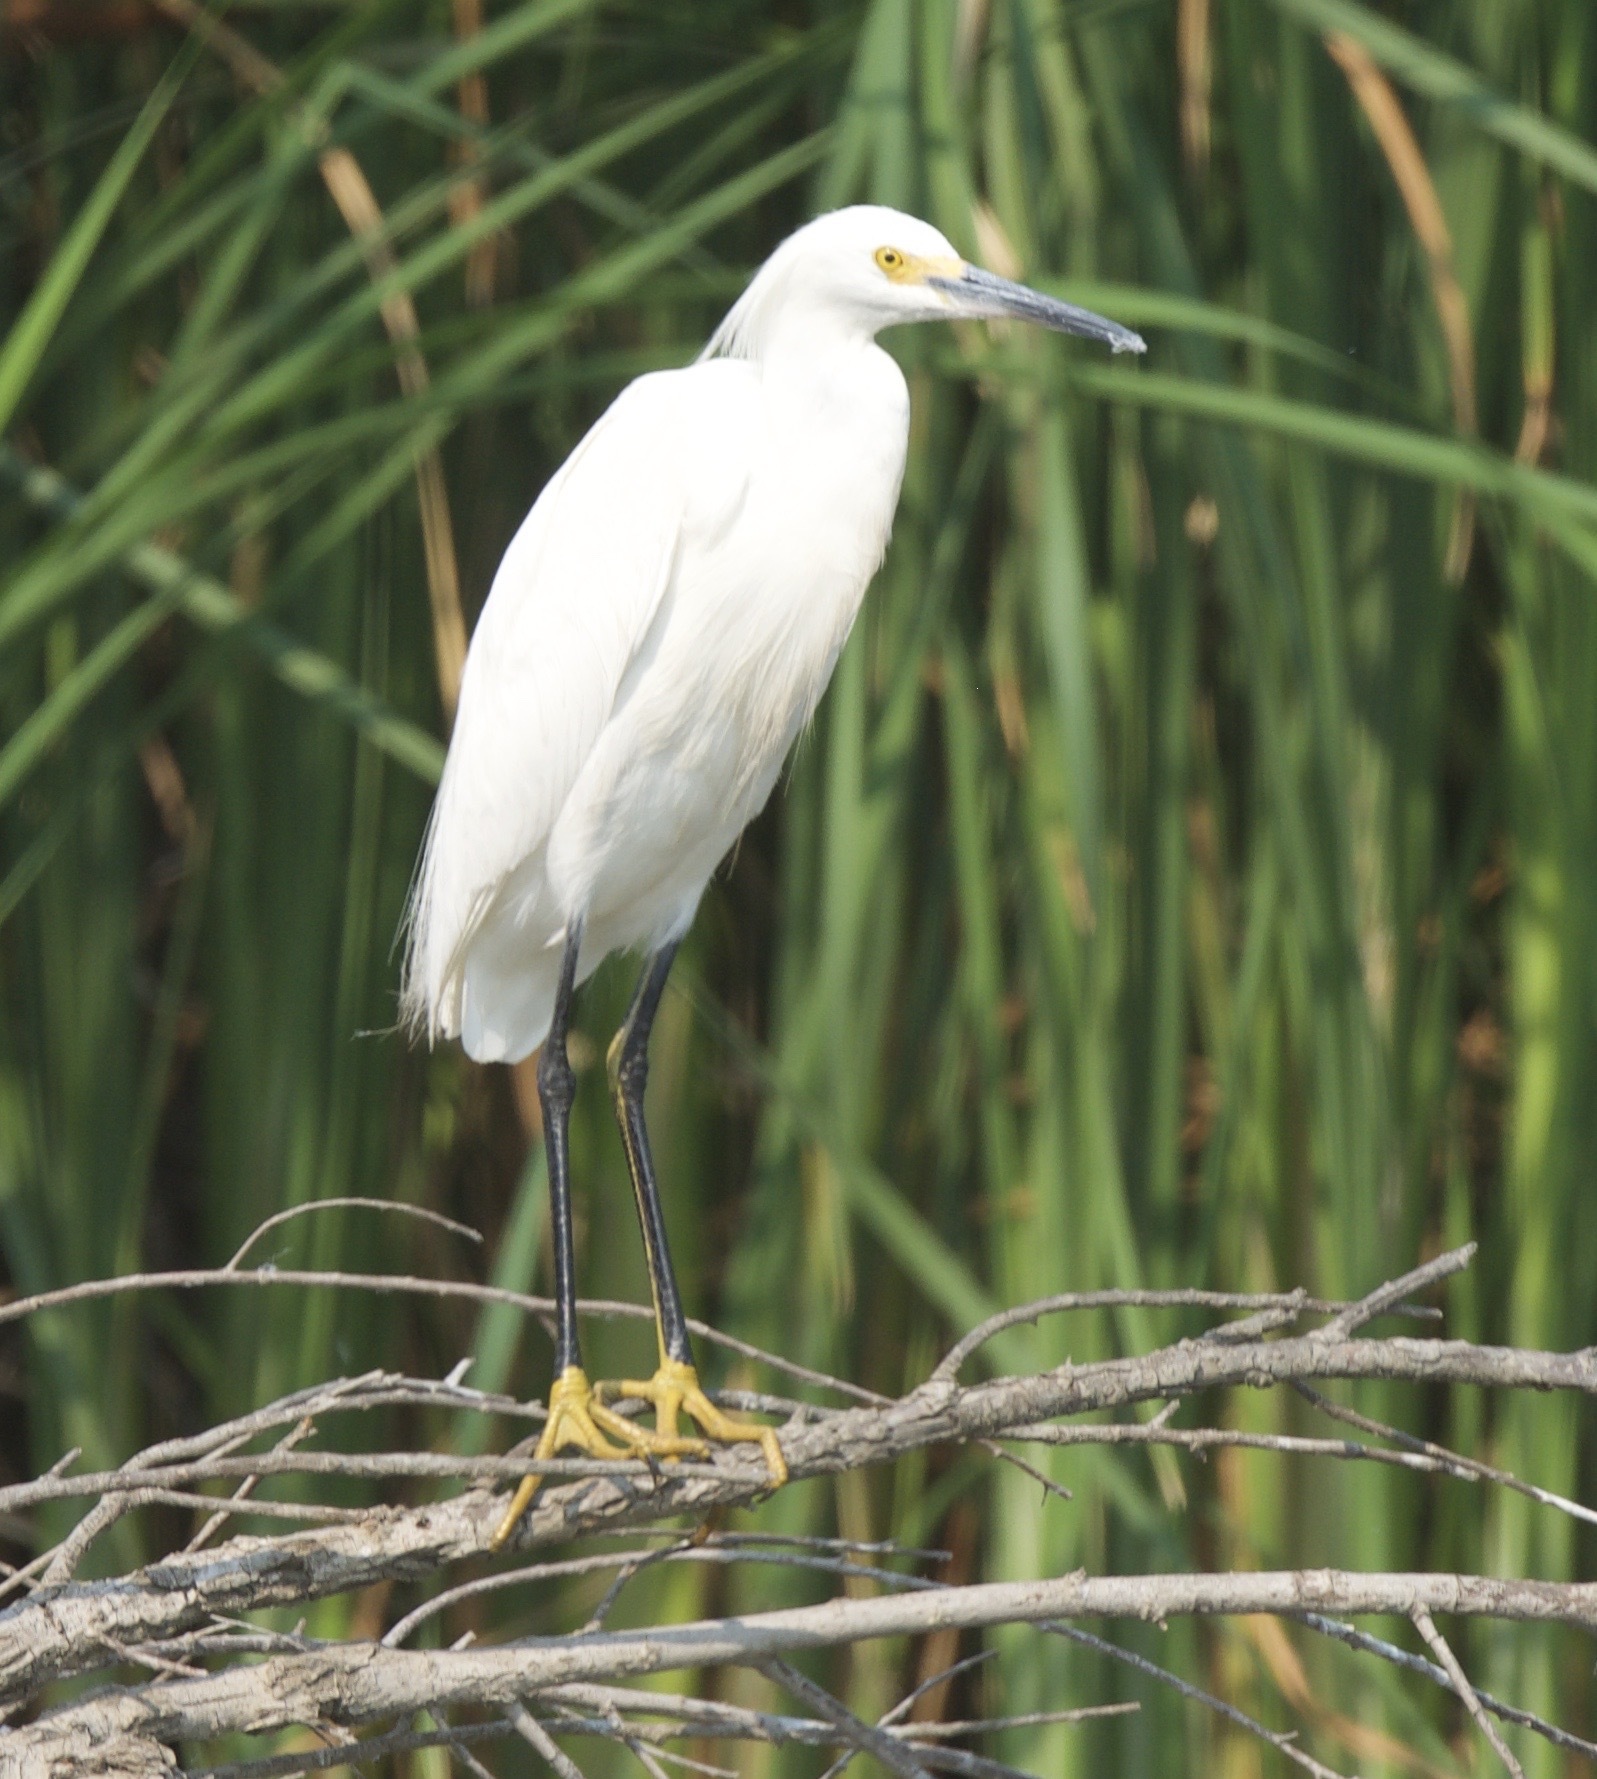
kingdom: Animalia
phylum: Chordata
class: Aves
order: Pelecaniformes
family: Ardeidae
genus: Egretta
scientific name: Egretta thula
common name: Snowy egret
